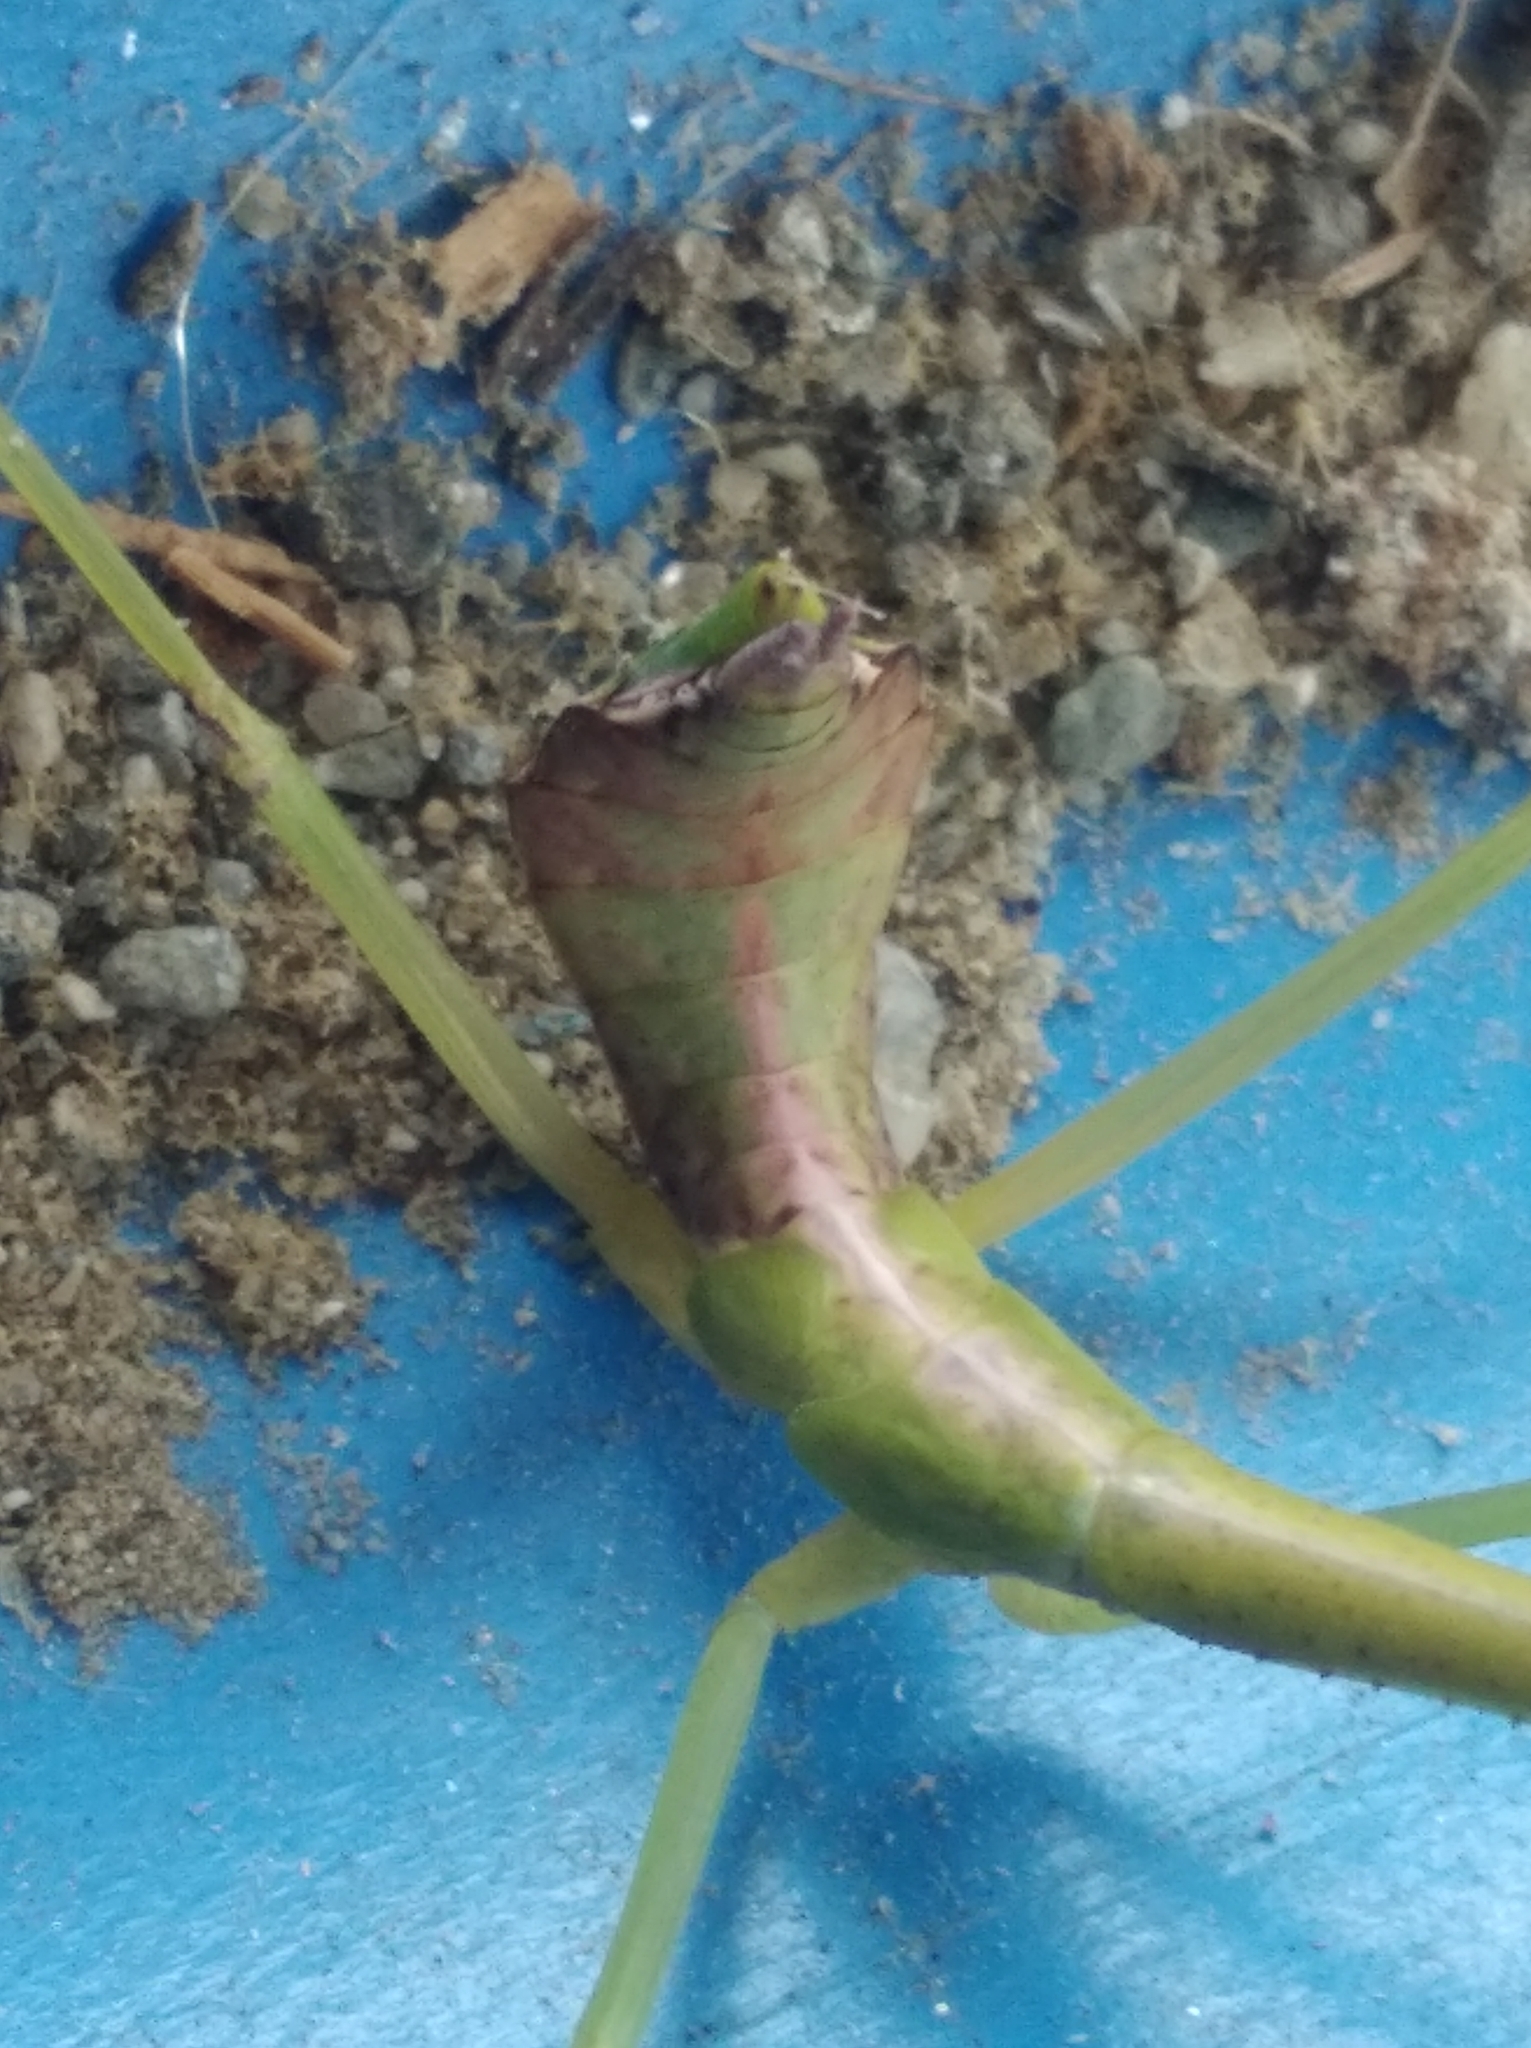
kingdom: Animalia
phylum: Arthropoda
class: Insecta
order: Mantodea
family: Mantidae
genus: Parastagmatoptera
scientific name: Parastagmatoptera unipunctata
